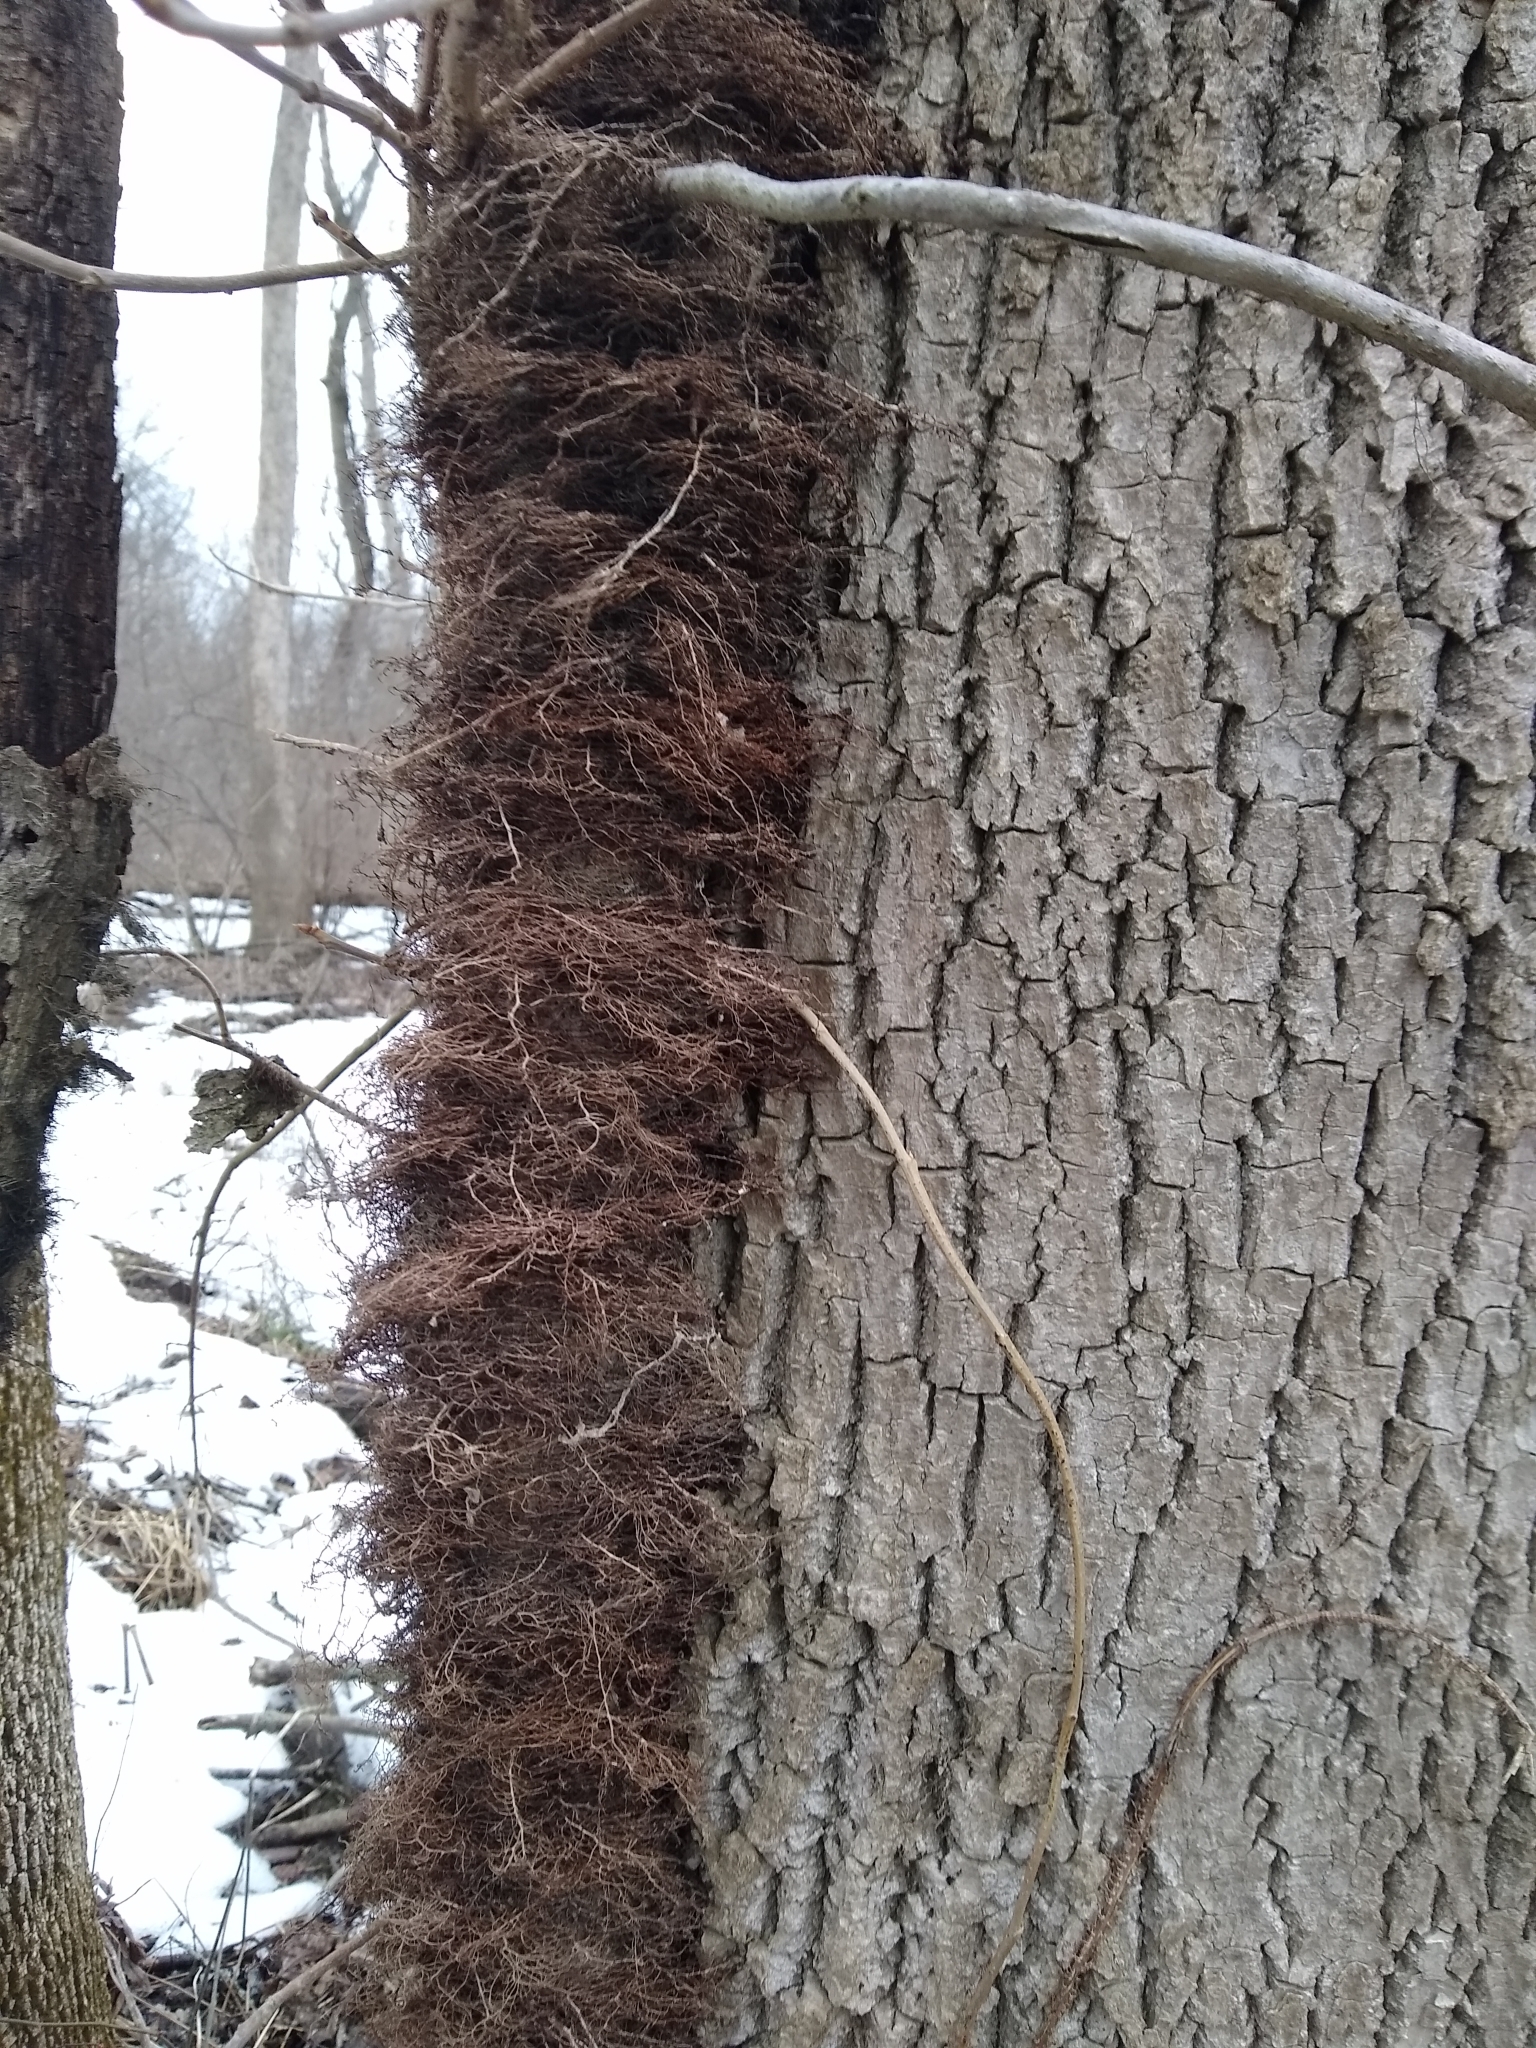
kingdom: Plantae
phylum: Tracheophyta
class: Magnoliopsida
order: Sapindales
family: Anacardiaceae
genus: Toxicodendron
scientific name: Toxicodendron radicans
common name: Poison ivy
